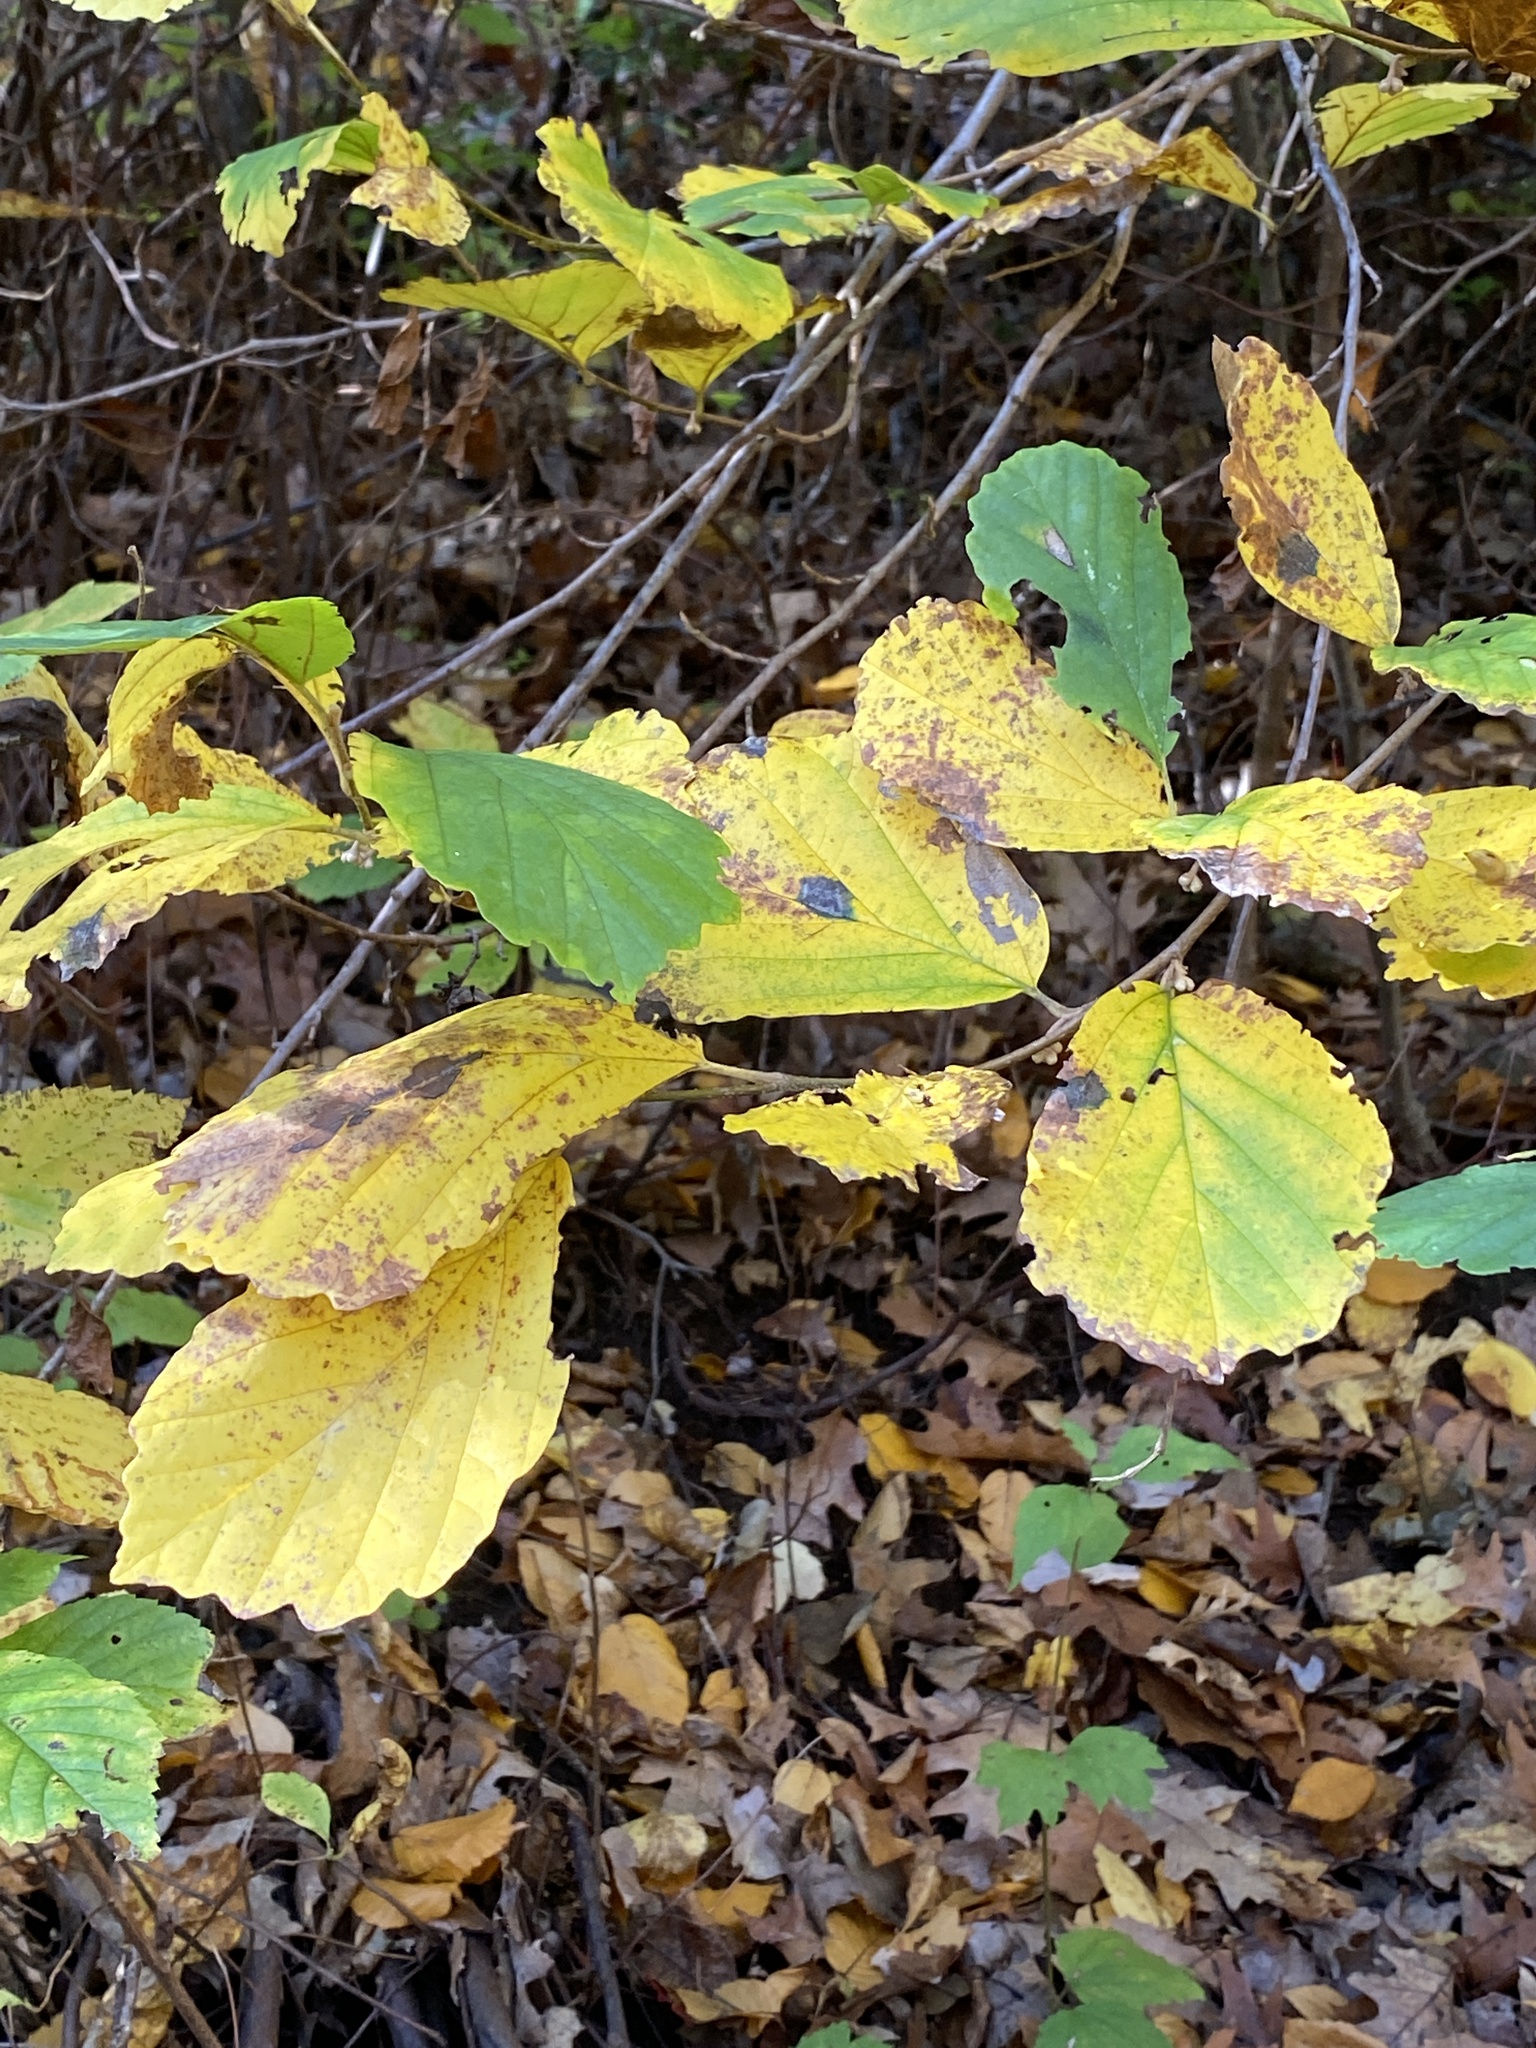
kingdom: Plantae
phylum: Tracheophyta
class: Magnoliopsida
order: Saxifragales
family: Hamamelidaceae
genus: Hamamelis
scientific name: Hamamelis virginiana
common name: Witch-hazel
